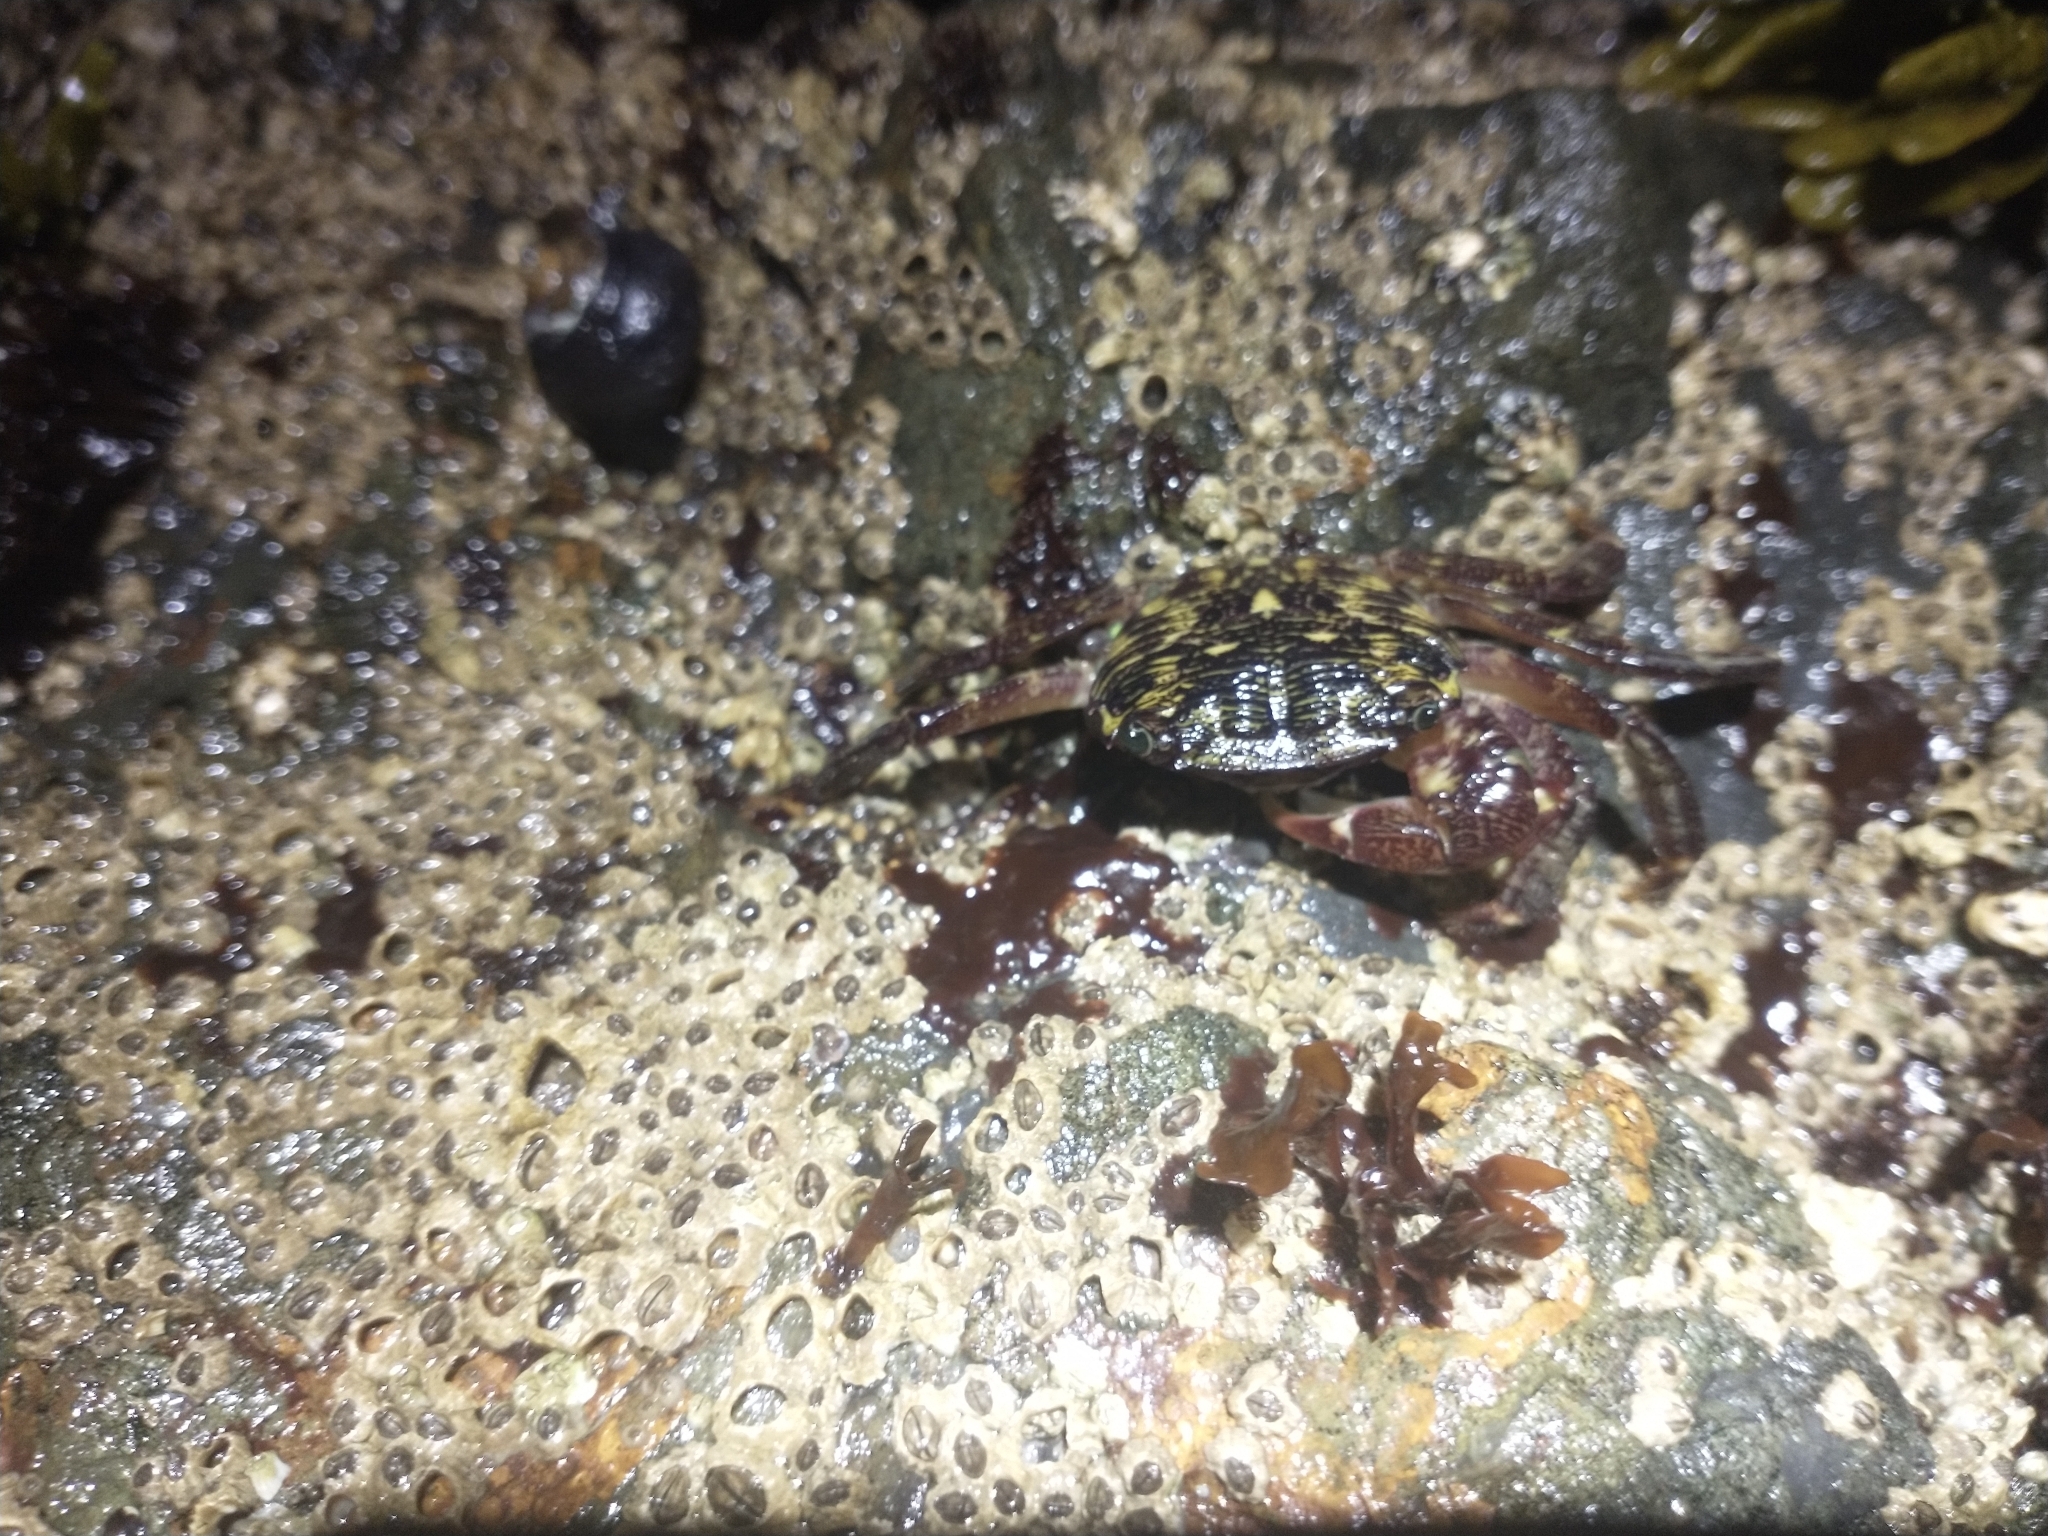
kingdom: Animalia
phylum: Arthropoda
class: Malacostraca
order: Decapoda
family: Grapsidae
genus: Pachygrapsus
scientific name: Pachygrapsus crassipes
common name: Striped shore crab
